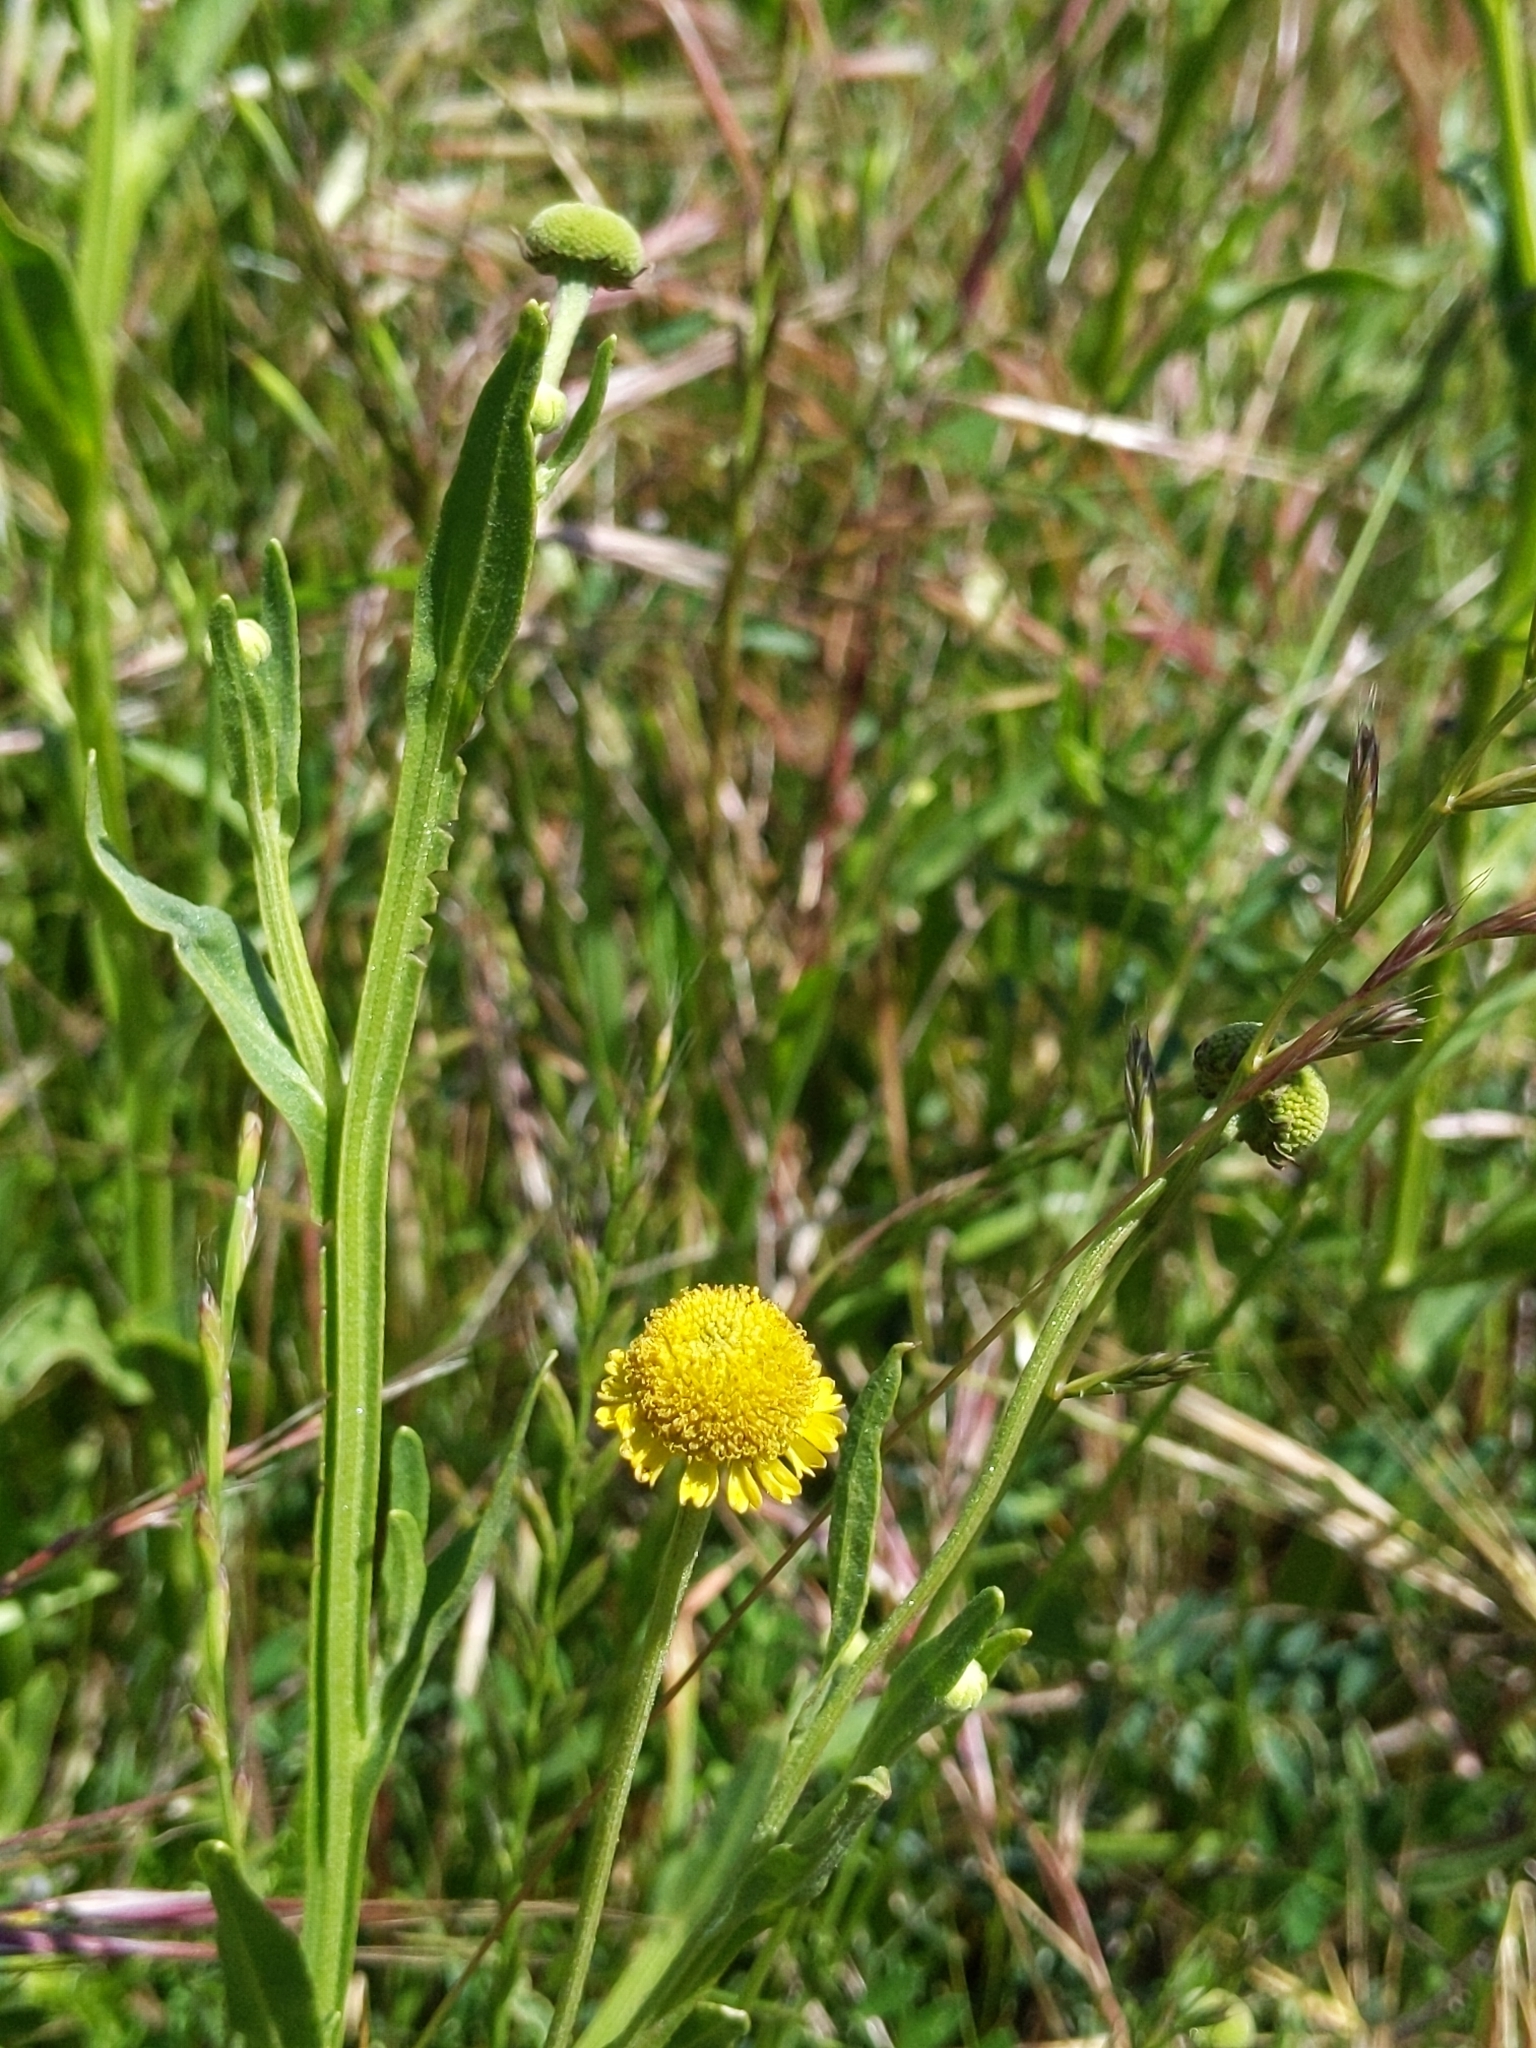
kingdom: Plantae
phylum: Tracheophyta
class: Magnoliopsida
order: Asterales
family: Asteraceae
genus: Helenium
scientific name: Helenium puberulum
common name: Sneezewort
